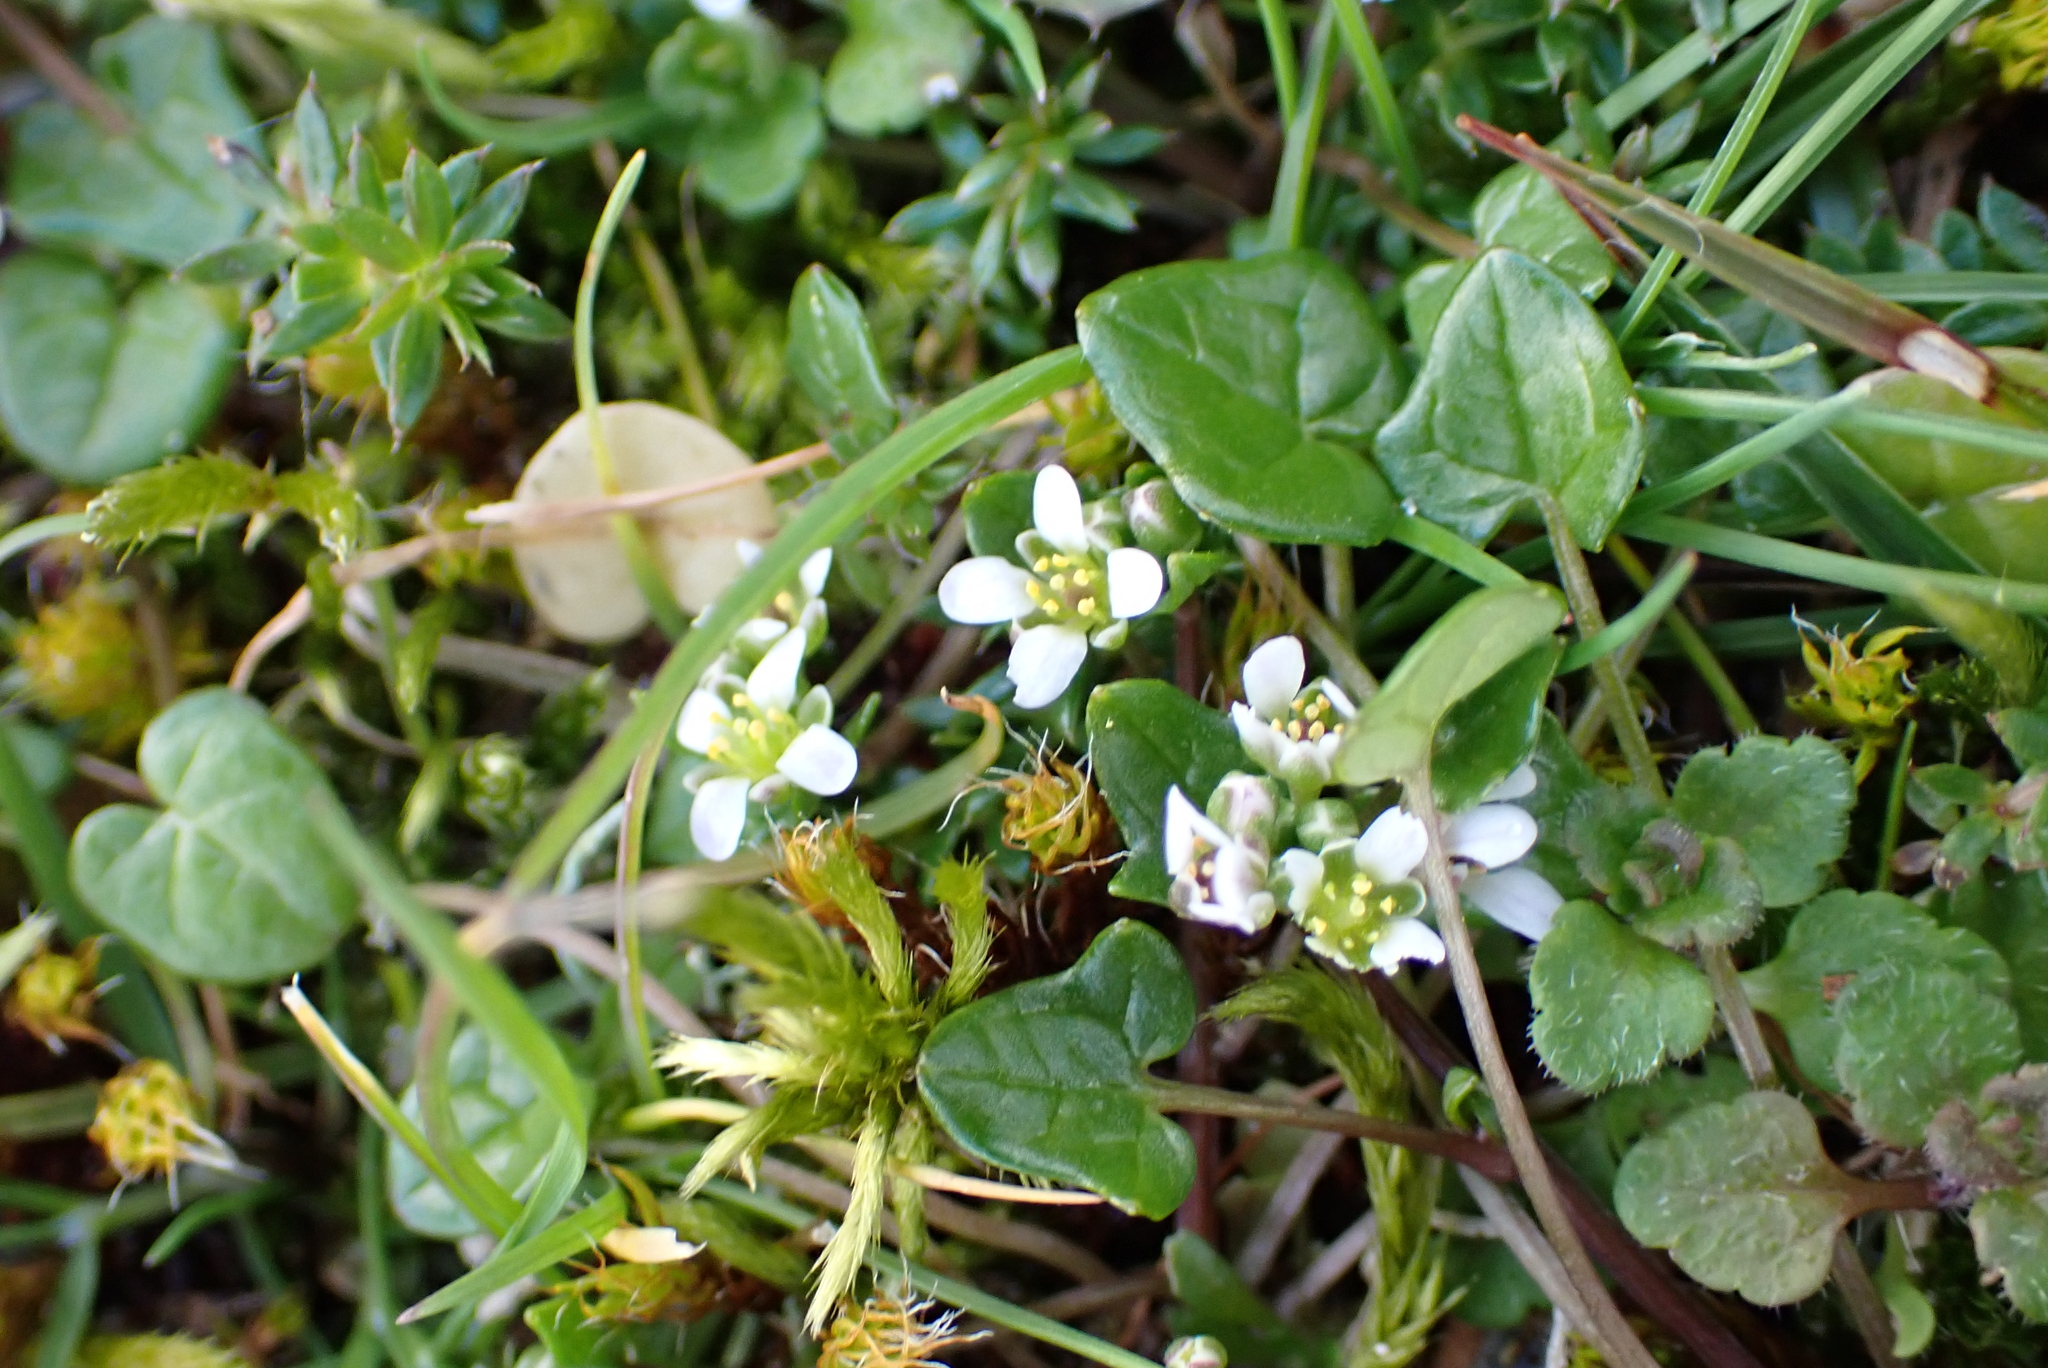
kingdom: Plantae
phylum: Tracheophyta
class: Magnoliopsida
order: Brassicales
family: Brassicaceae
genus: Cochlearia
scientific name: Cochlearia danica
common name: Early scurvygrass
